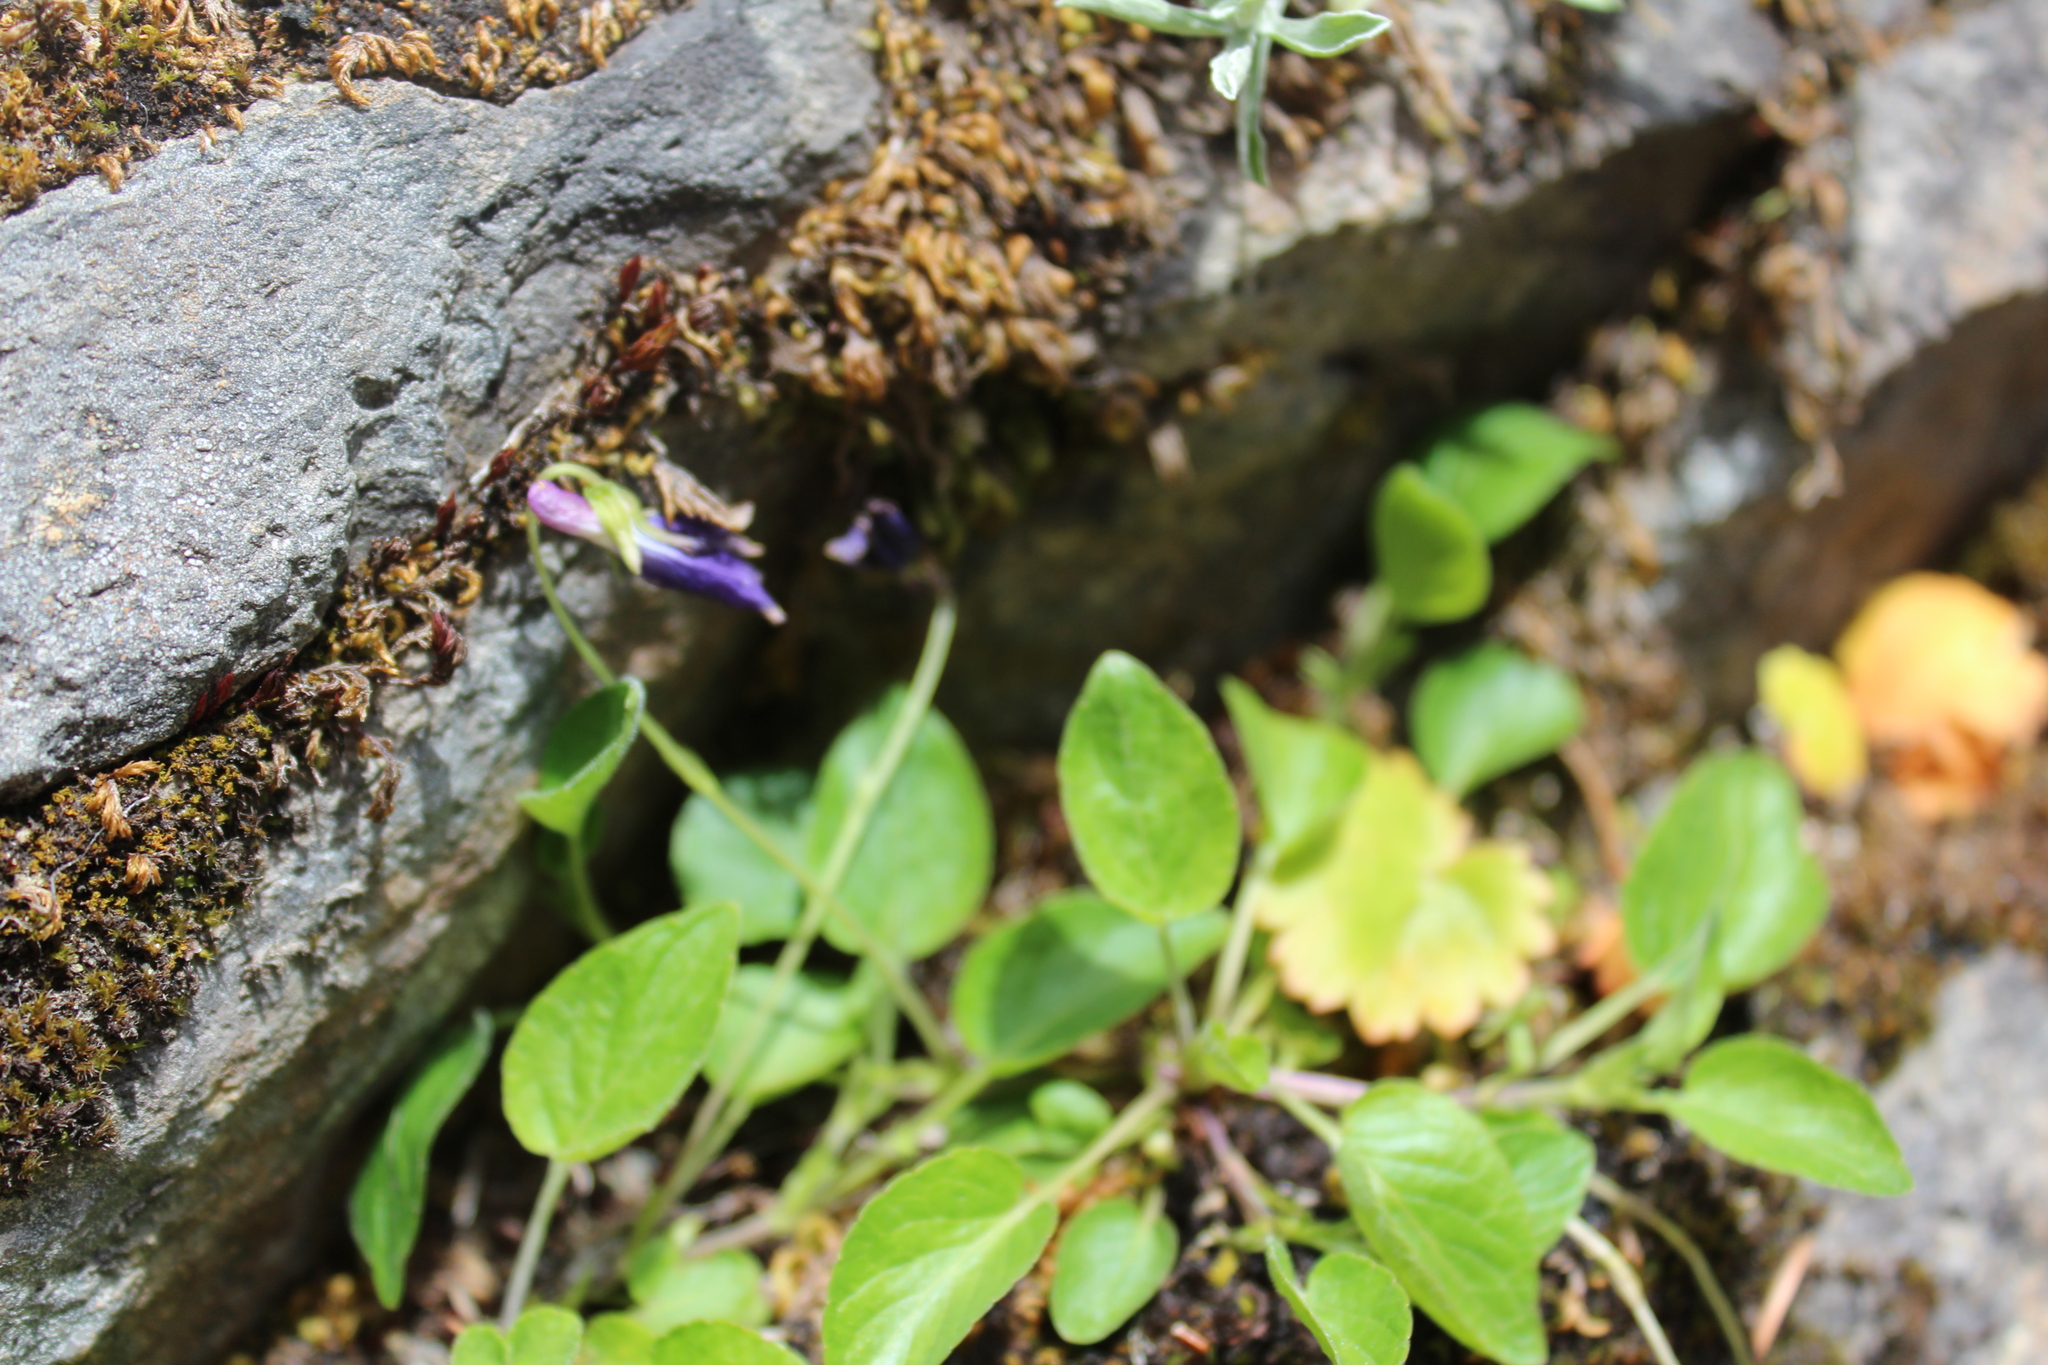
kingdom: Plantae
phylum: Tracheophyta
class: Magnoliopsida
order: Malpighiales
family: Violaceae
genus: Viola
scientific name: Viola adunca
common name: Sand violet
